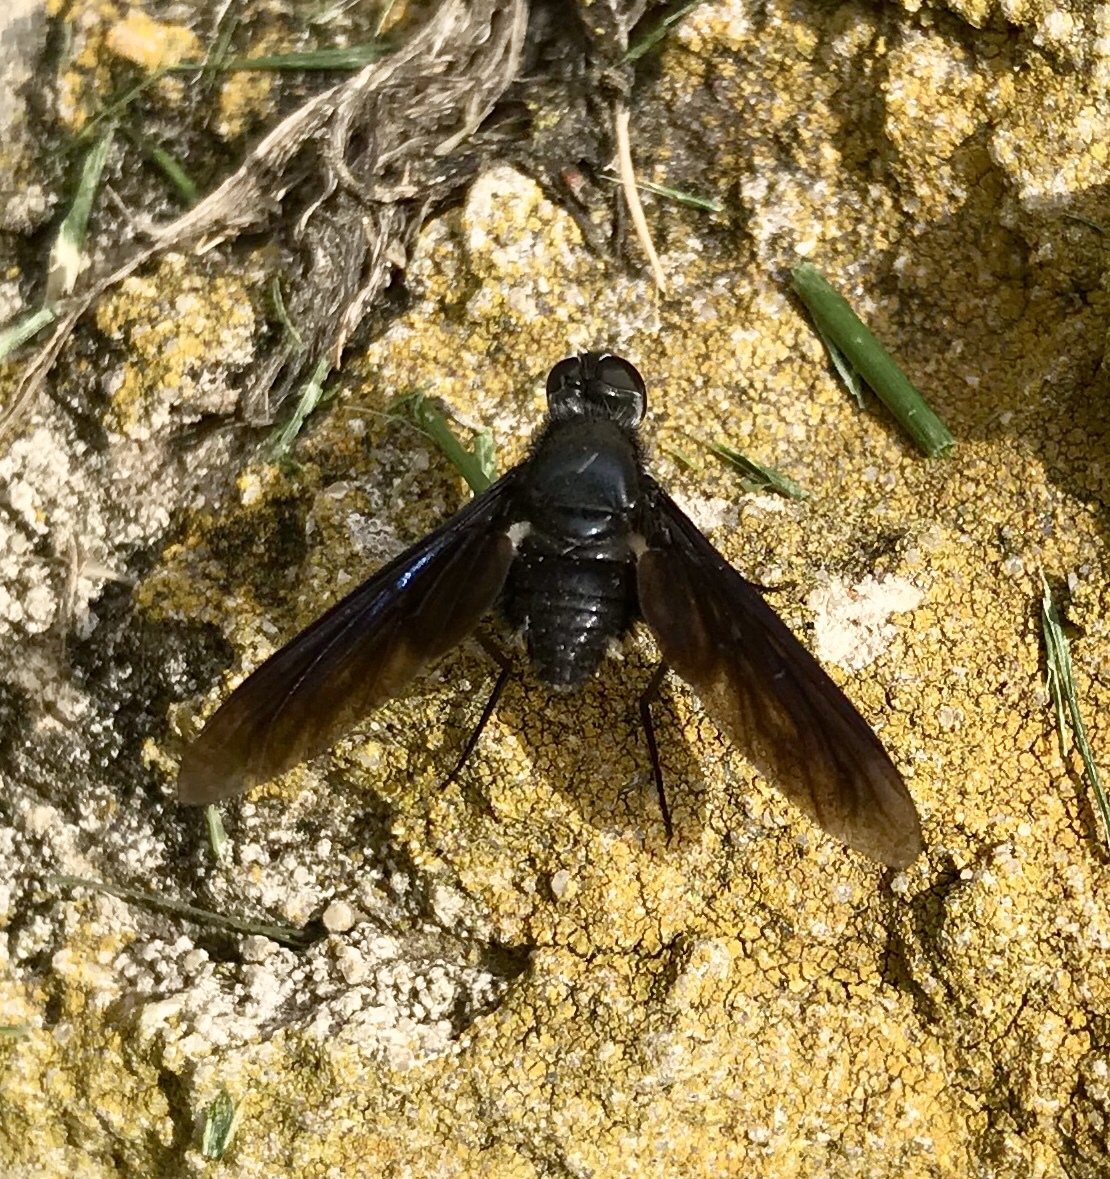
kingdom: Animalia
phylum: Arthropoda
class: Insecta
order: Diptera
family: Bombyliidae
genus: Brachyanax
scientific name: Brachyanax aterrimus
